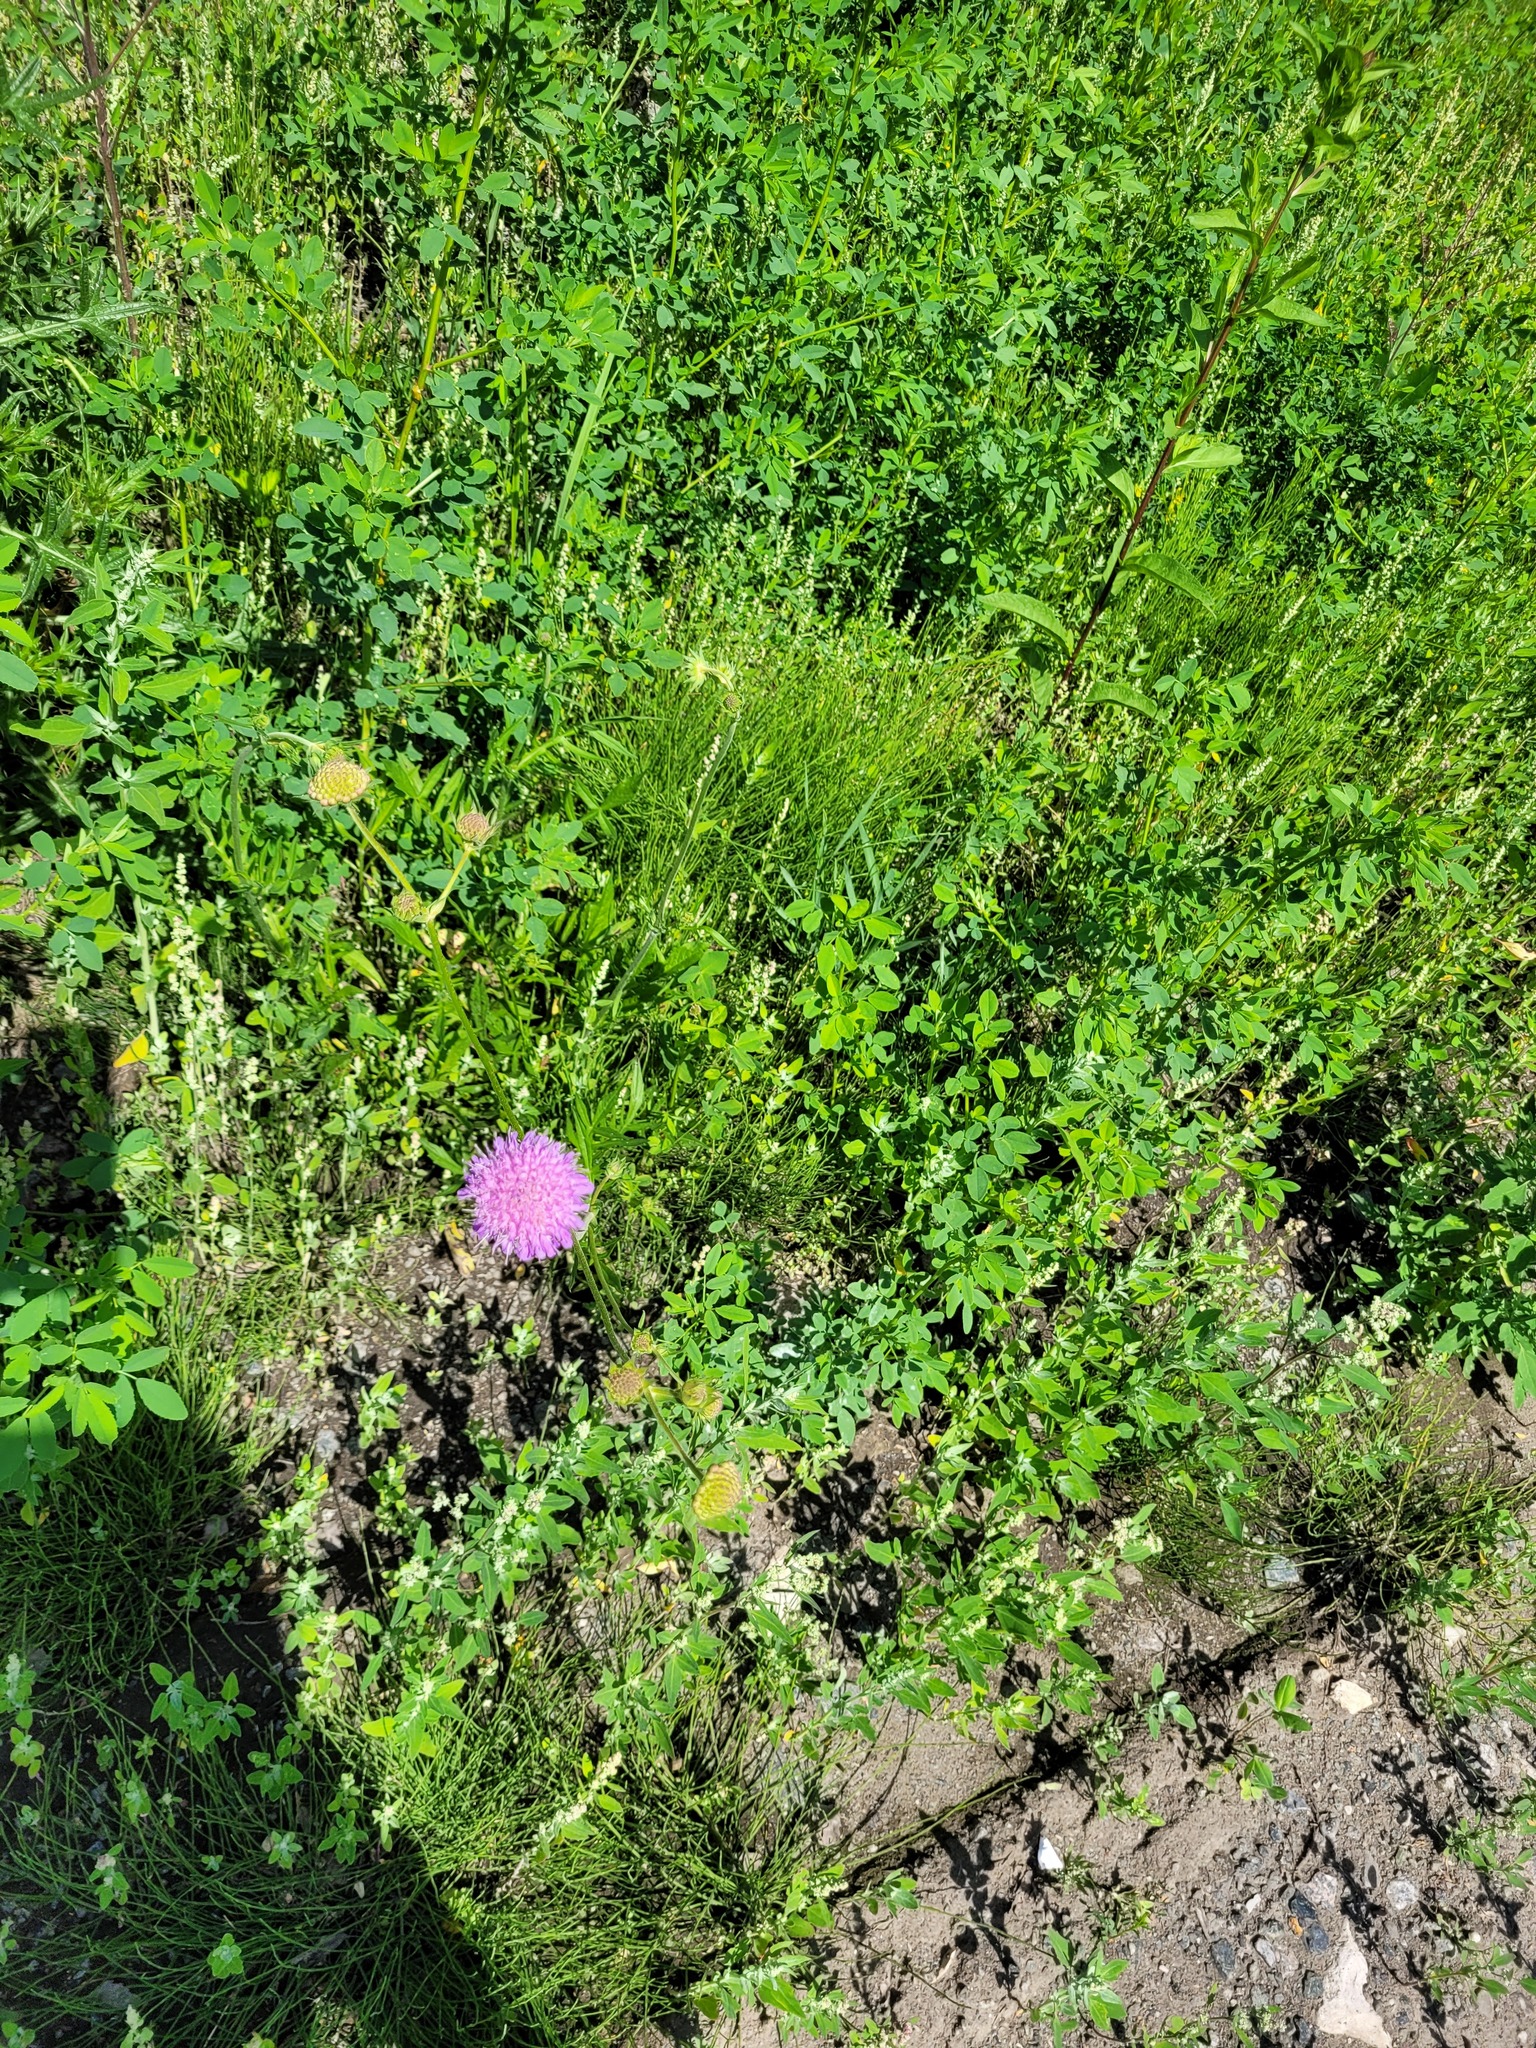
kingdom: Plantae
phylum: Tracheophyta
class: Magnoliopsida
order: Dipsacales
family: Caprifoliaceae
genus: Knautia
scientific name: Knautia arvensis
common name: Field scabiosa
